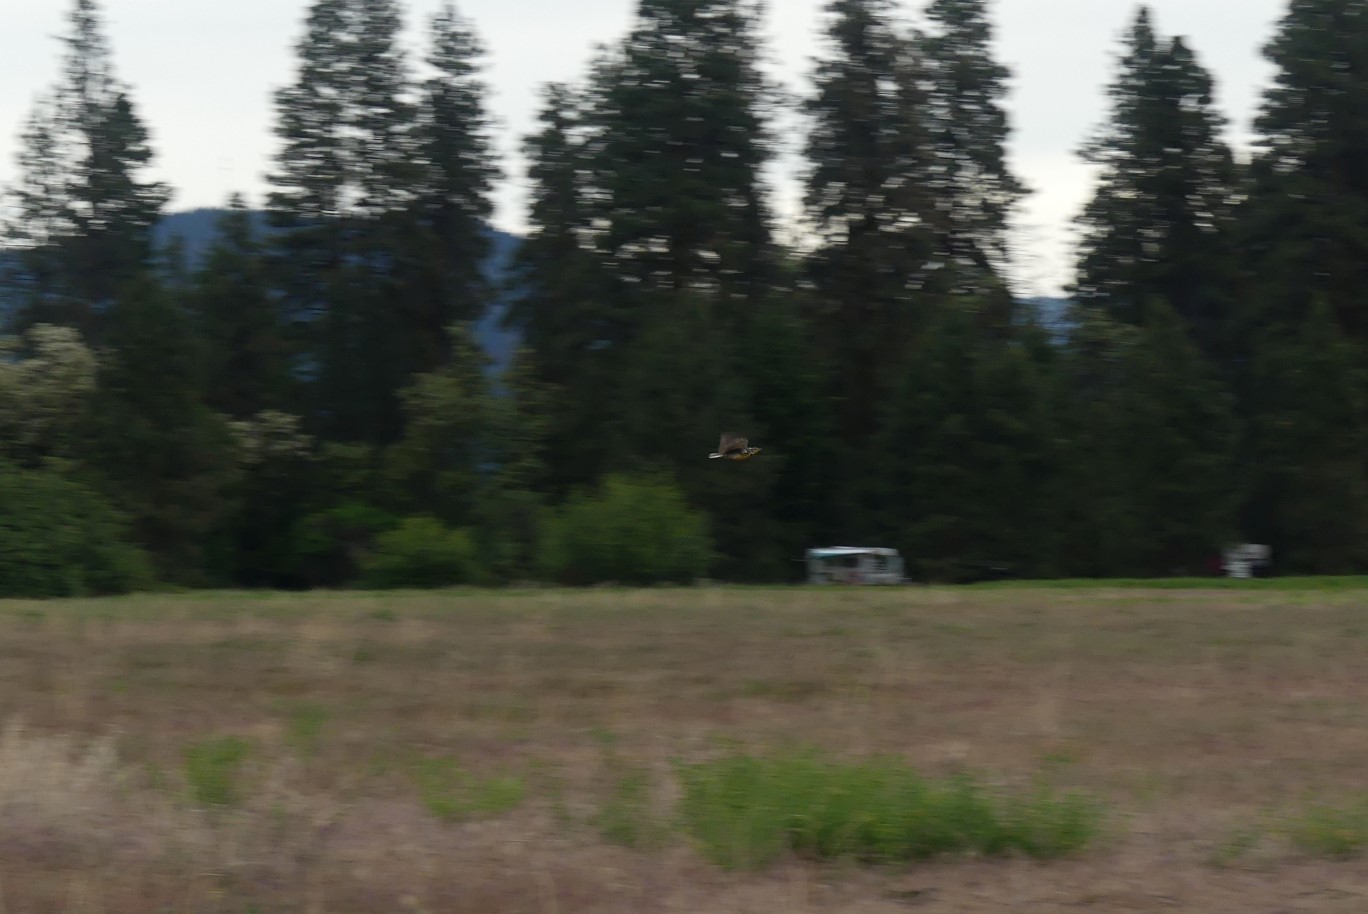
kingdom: Animalia
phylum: Chordata
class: Aves
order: Passeriformes
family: Icteridae
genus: Sturnella
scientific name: Sturnella neglecta
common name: Western meadowlark
